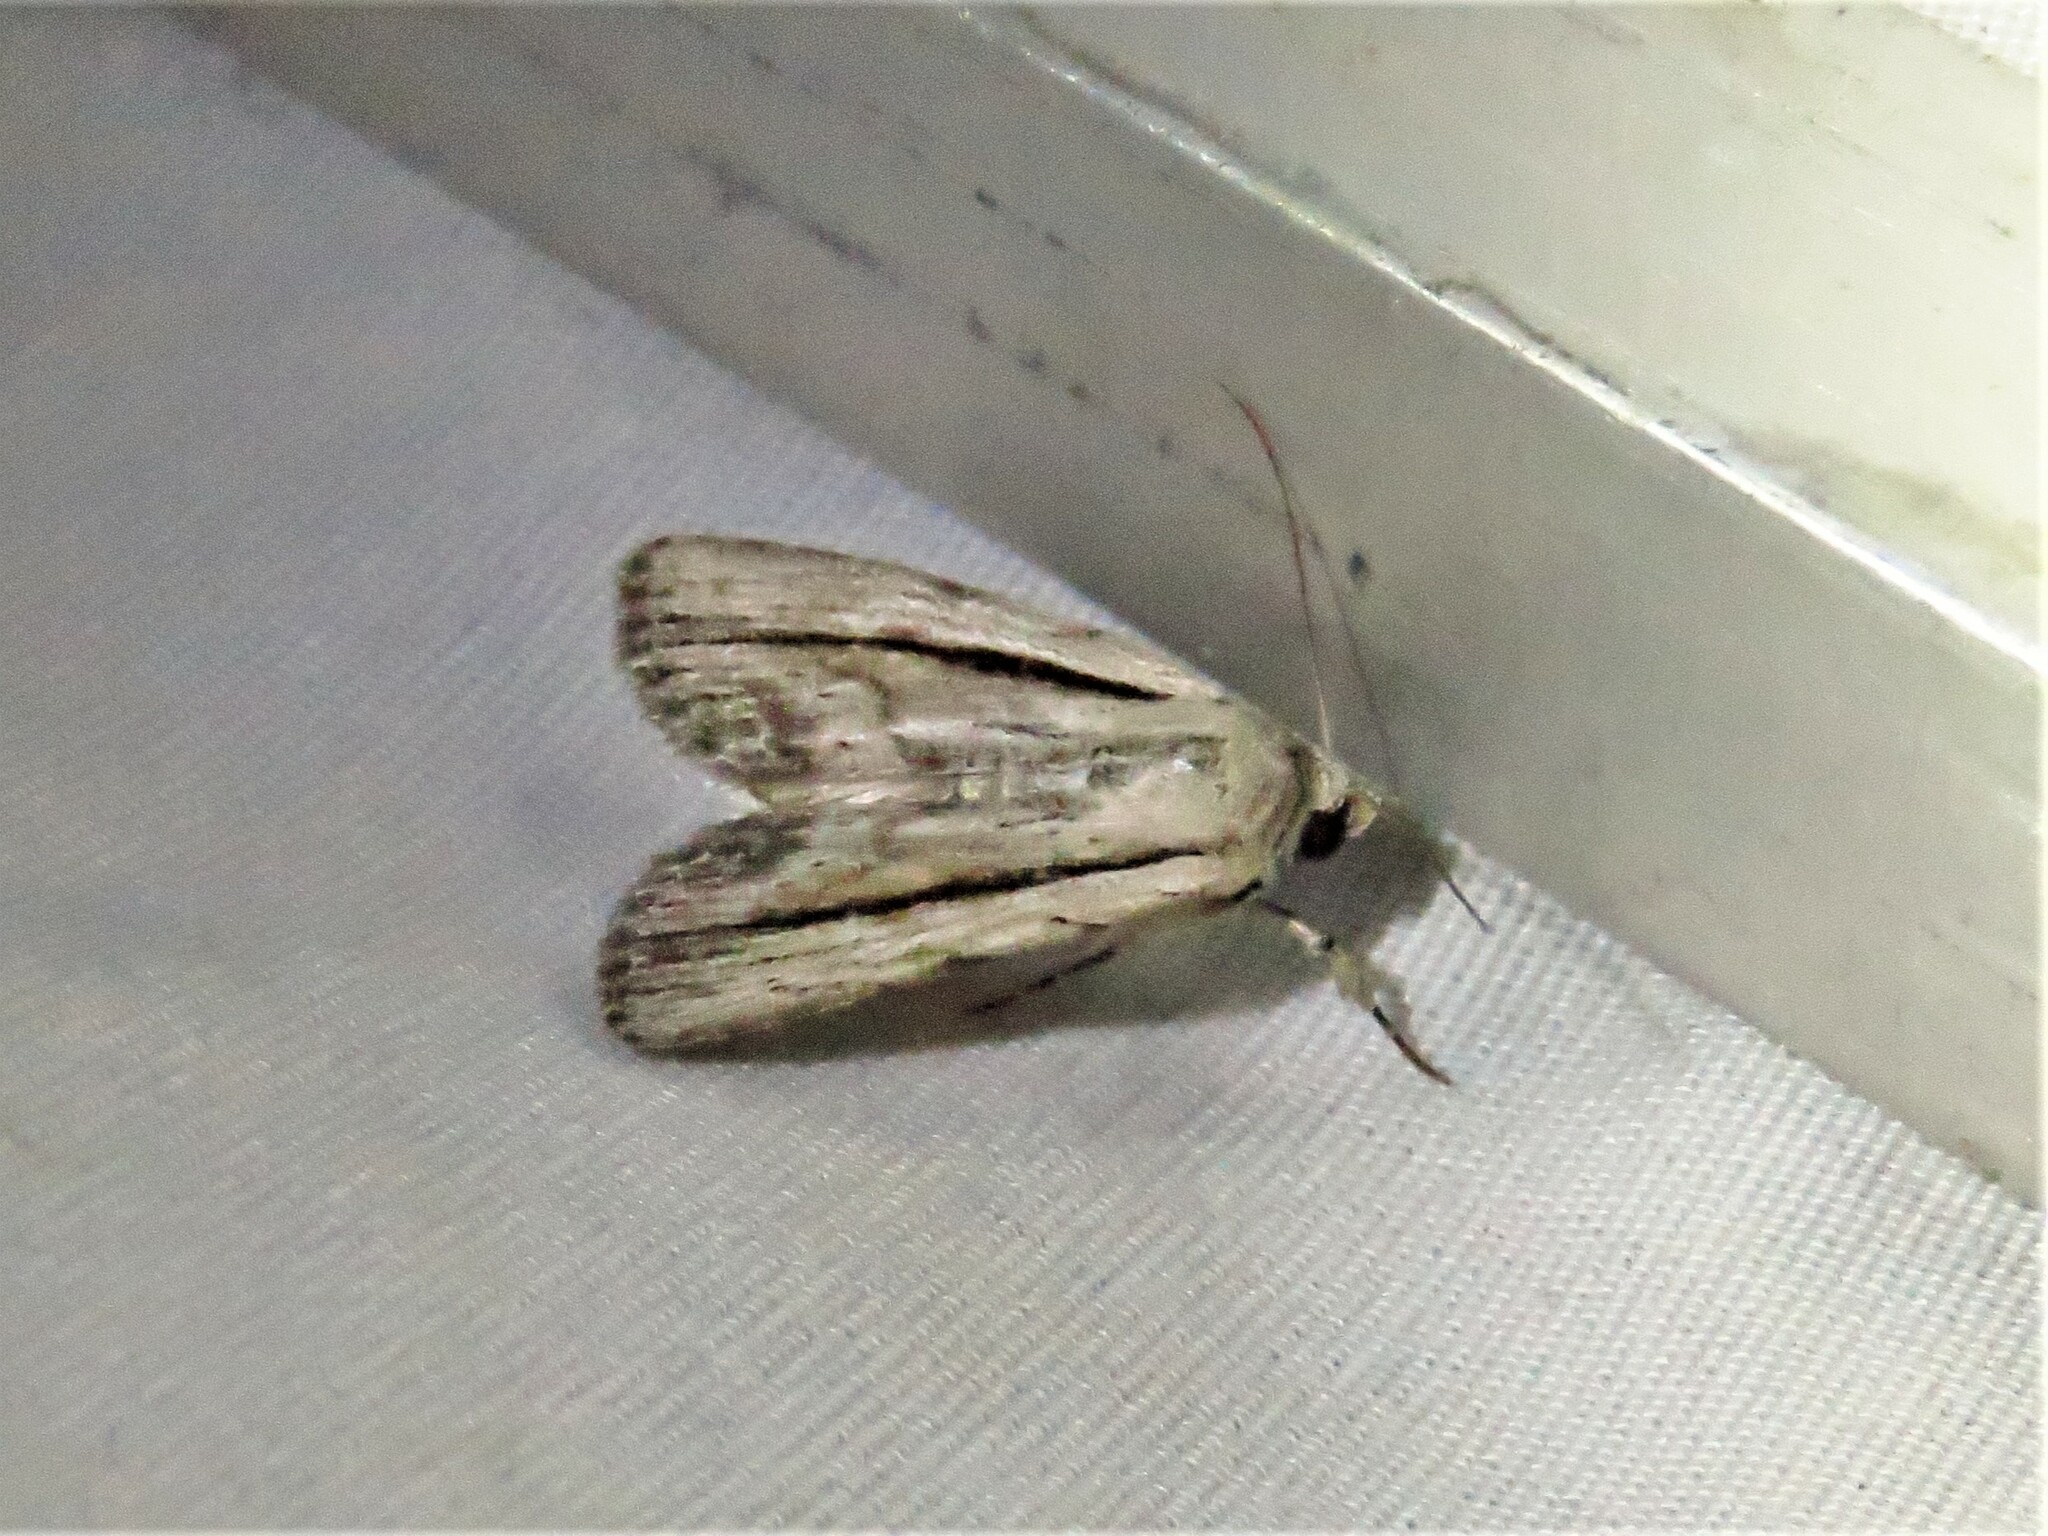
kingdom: Animalia
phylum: Arthropoda
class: Insecta
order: Lepidoptera
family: Noctuidae
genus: Catabenoides
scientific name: Catabenoides terminellus
